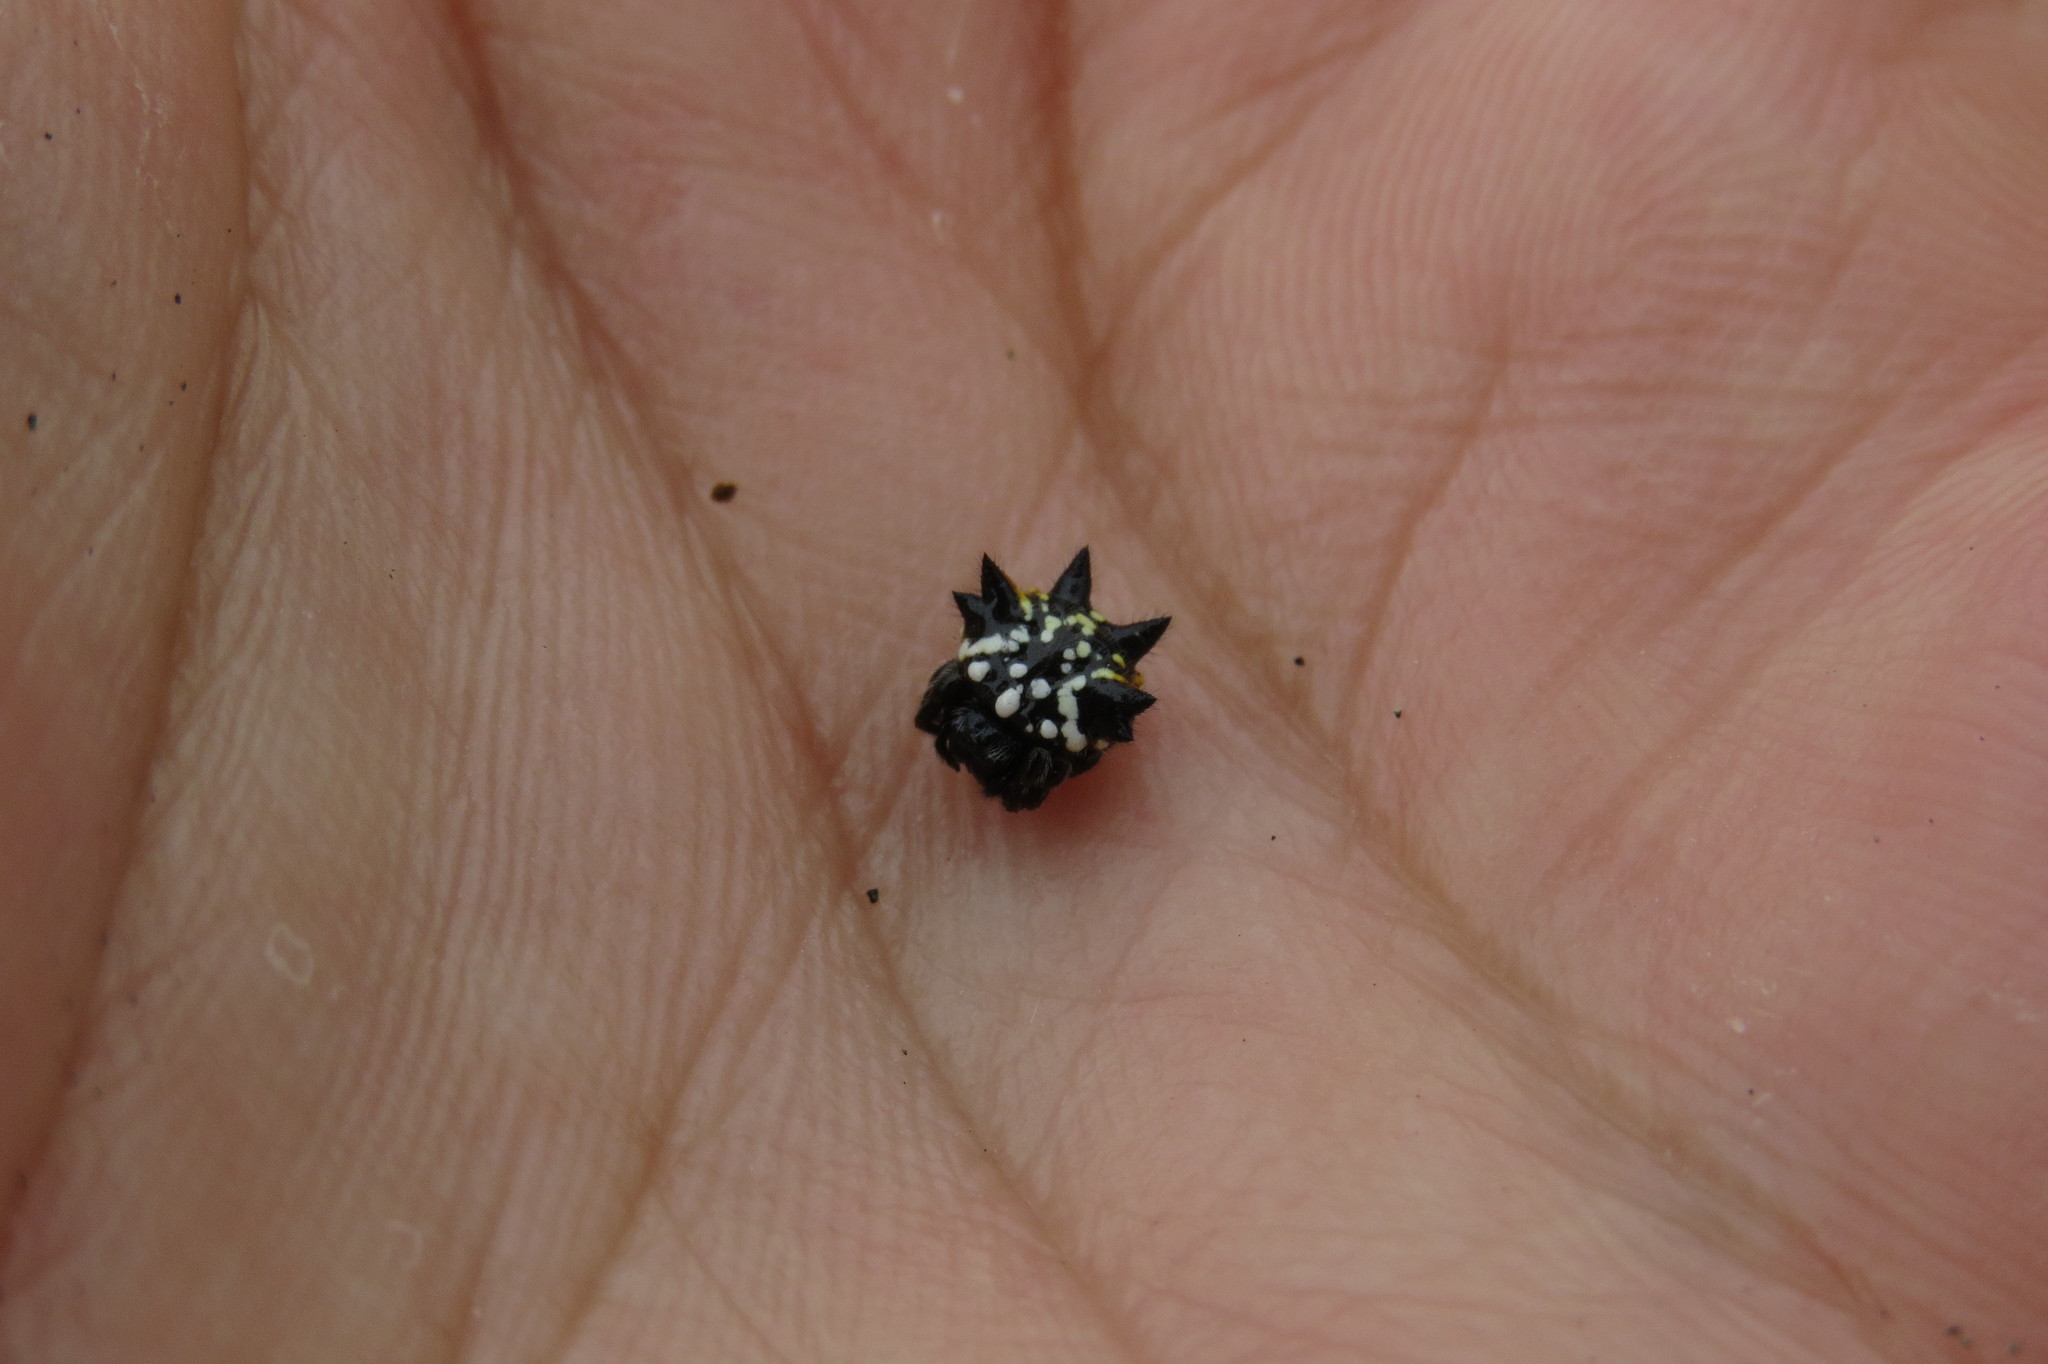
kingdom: Animalia
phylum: Arthropoda
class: Arachnida
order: Araneae
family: Araneidae
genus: Austracantha
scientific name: Austracantha minax
